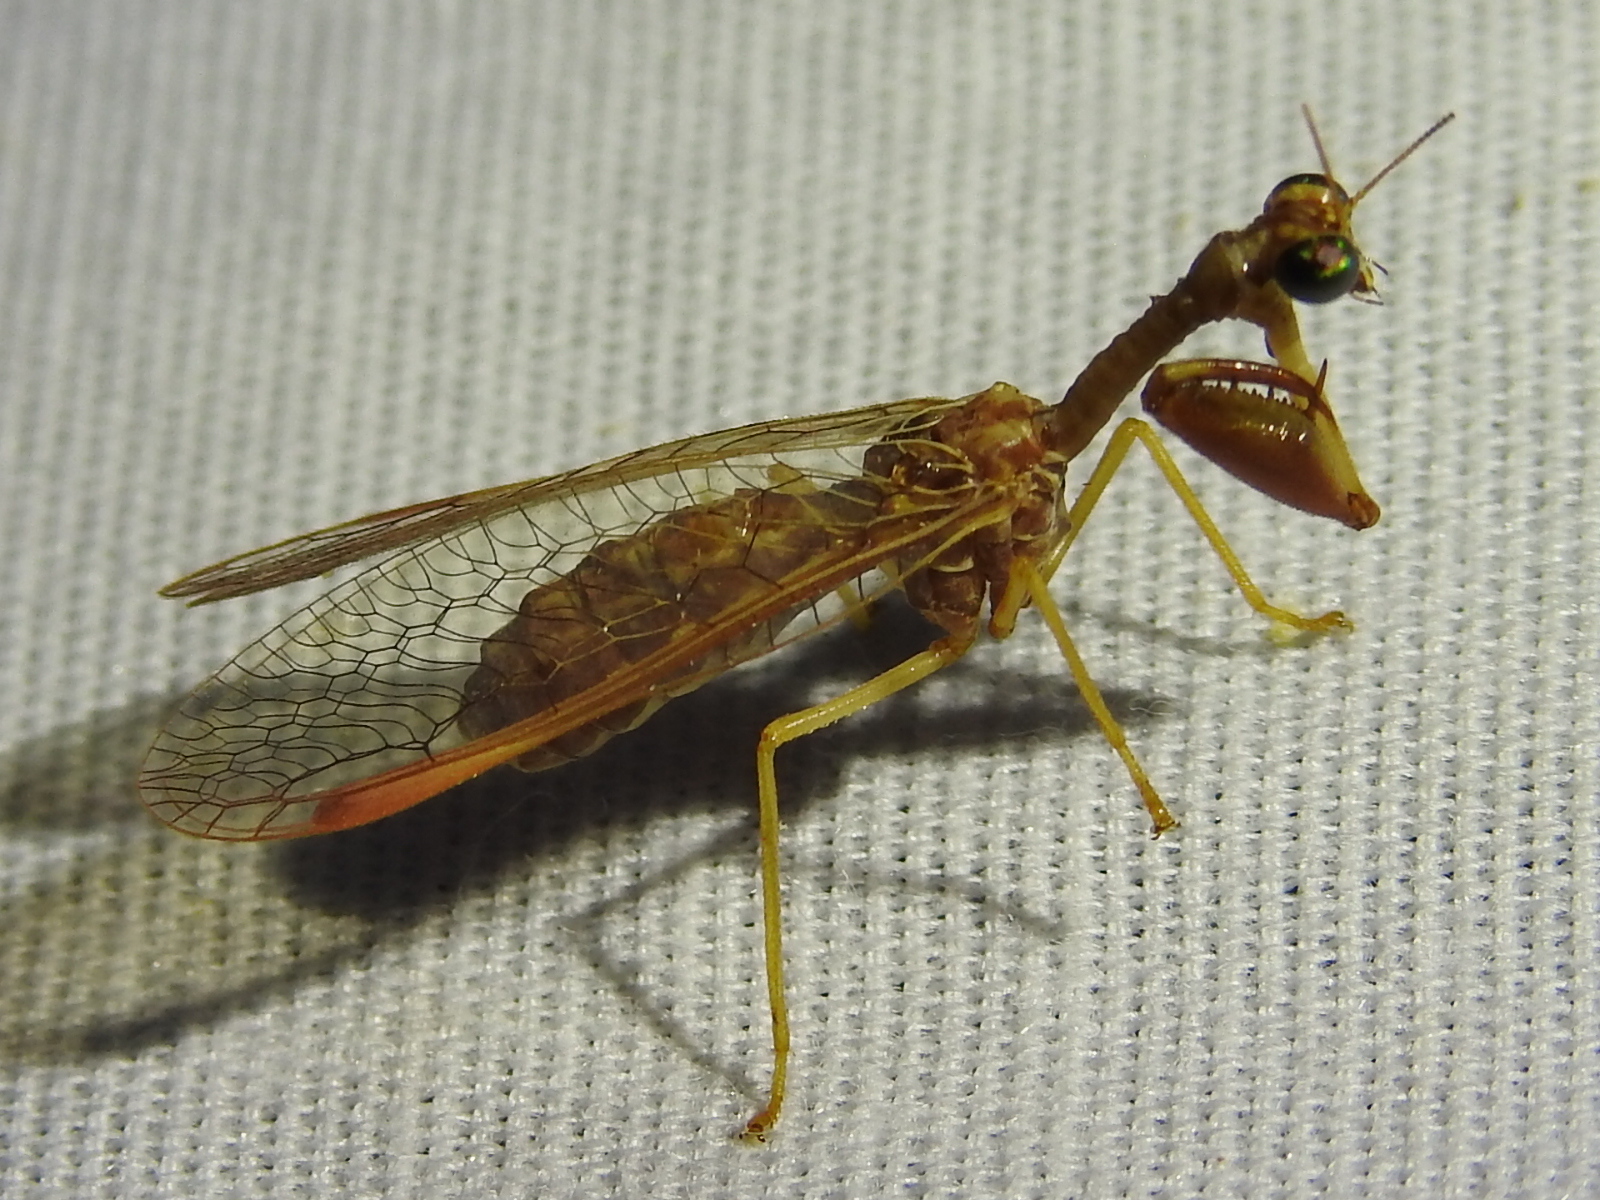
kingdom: Animalia
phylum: Arthropoda
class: Insecta
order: Neuroptera
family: Mantispidae
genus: Dicromantispa
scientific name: Dicromantispa sayi
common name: Say's mantidfly
